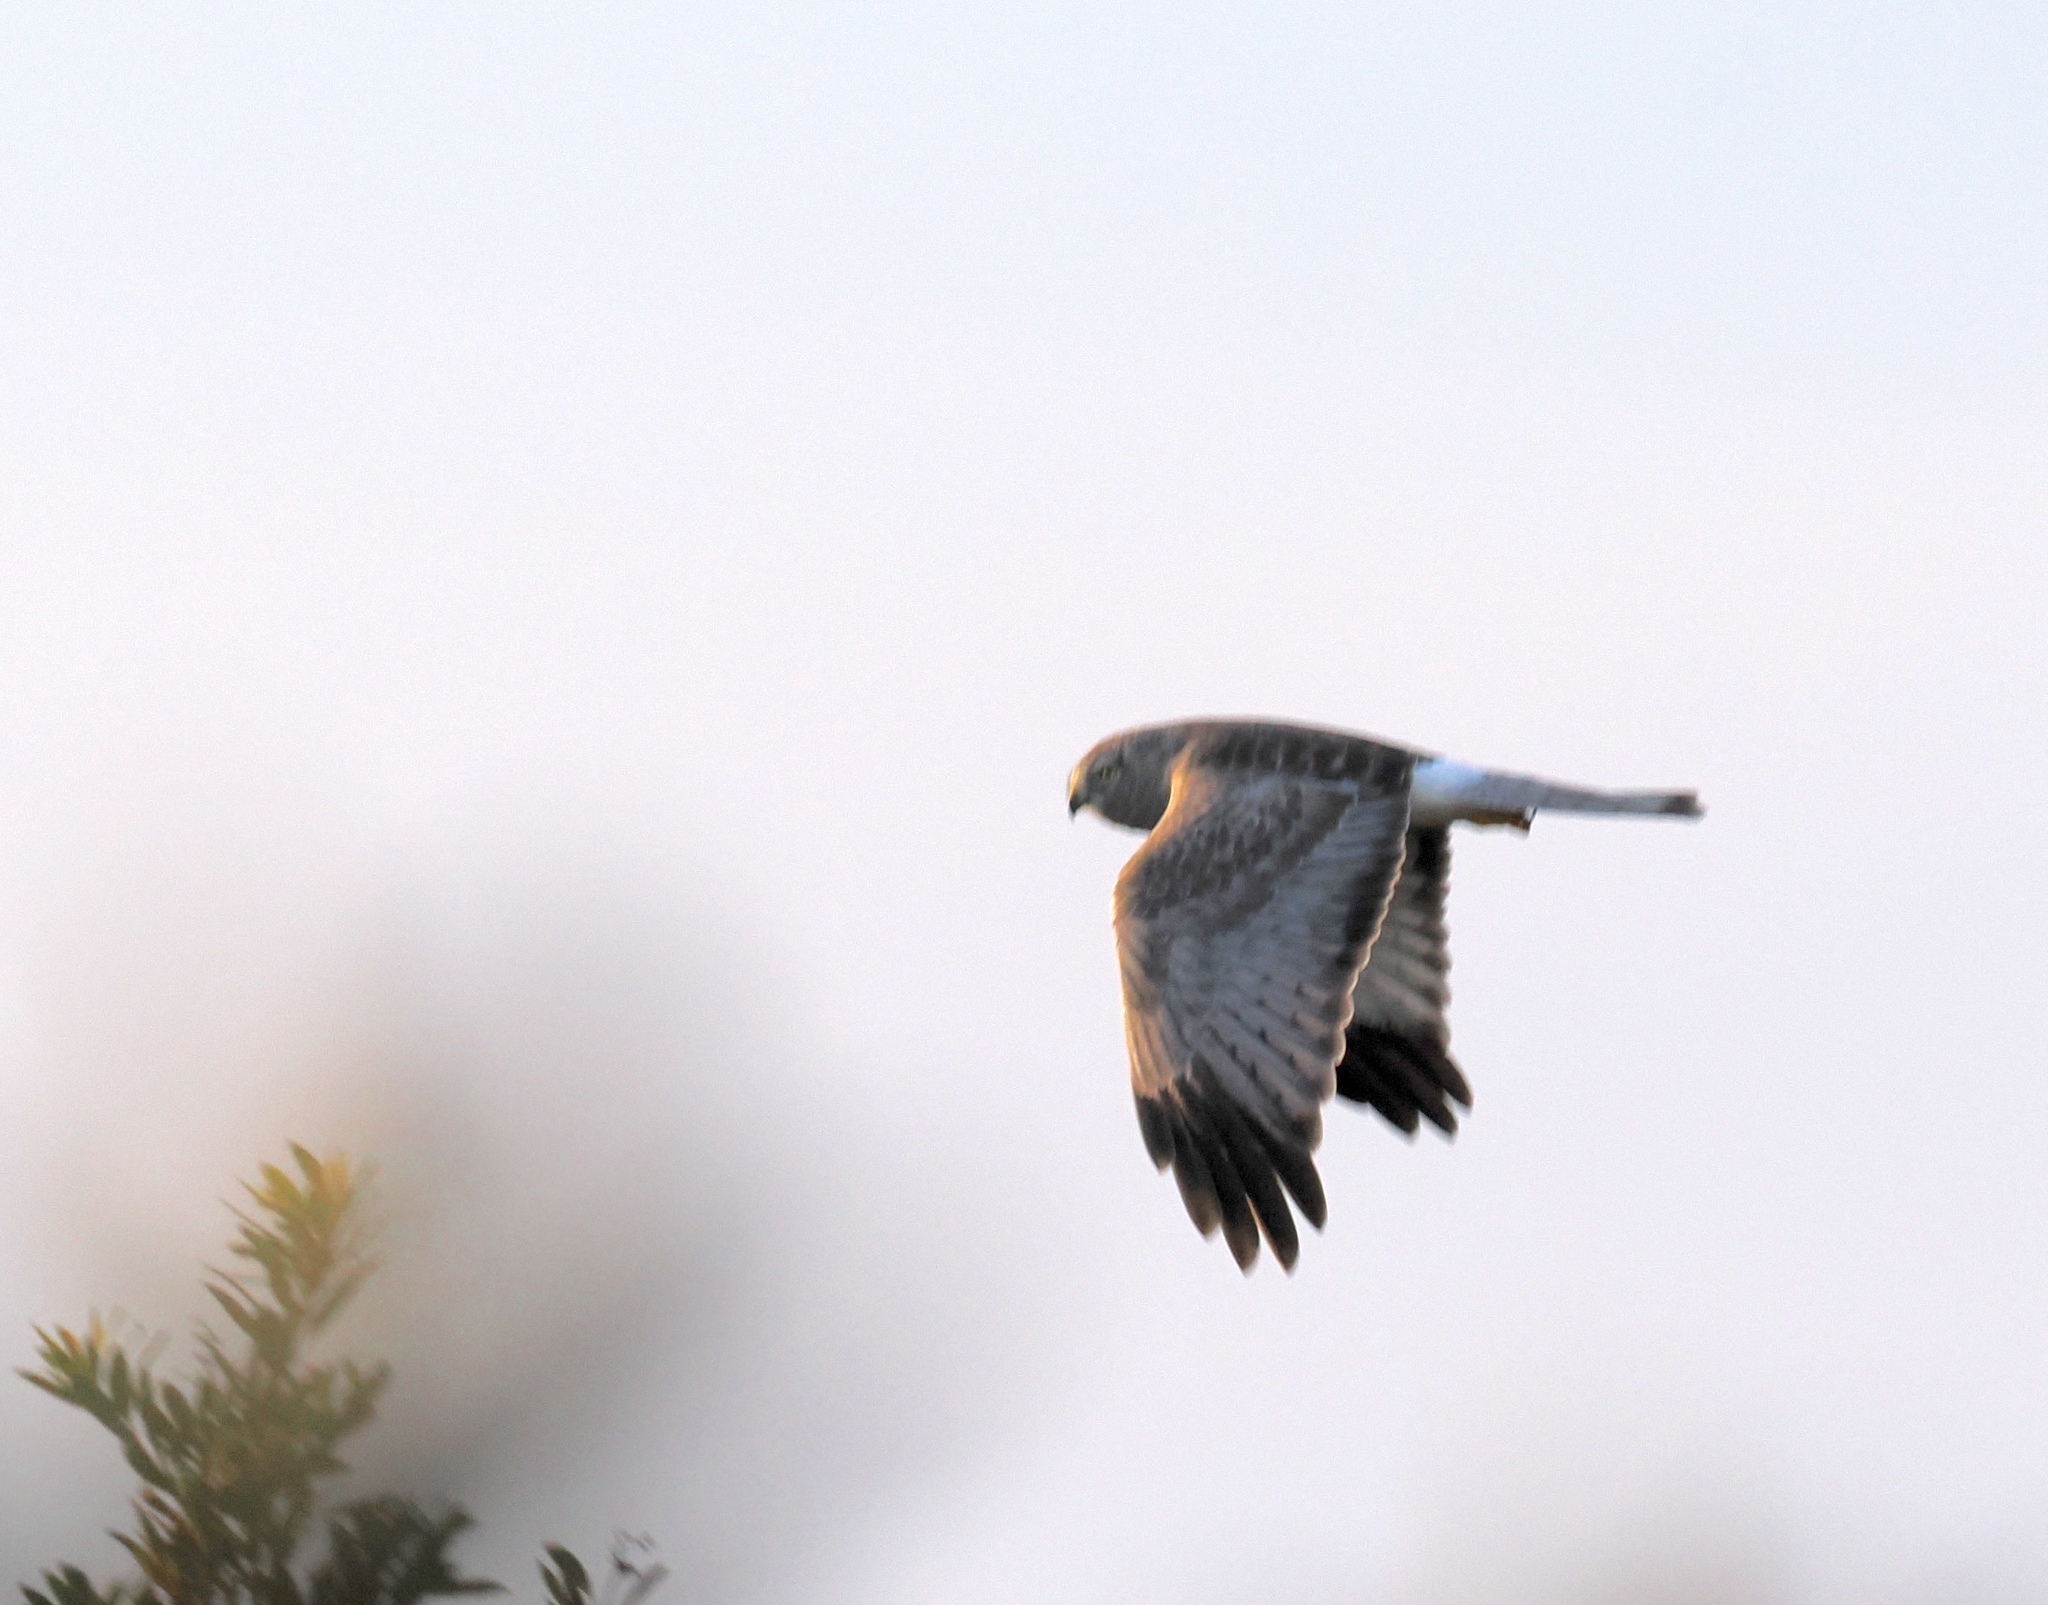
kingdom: Animalia
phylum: Chordata
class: Aves
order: Accipitriformes
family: Accipitridae
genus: Circus
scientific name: Circus cyaneus
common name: Hen harrier
